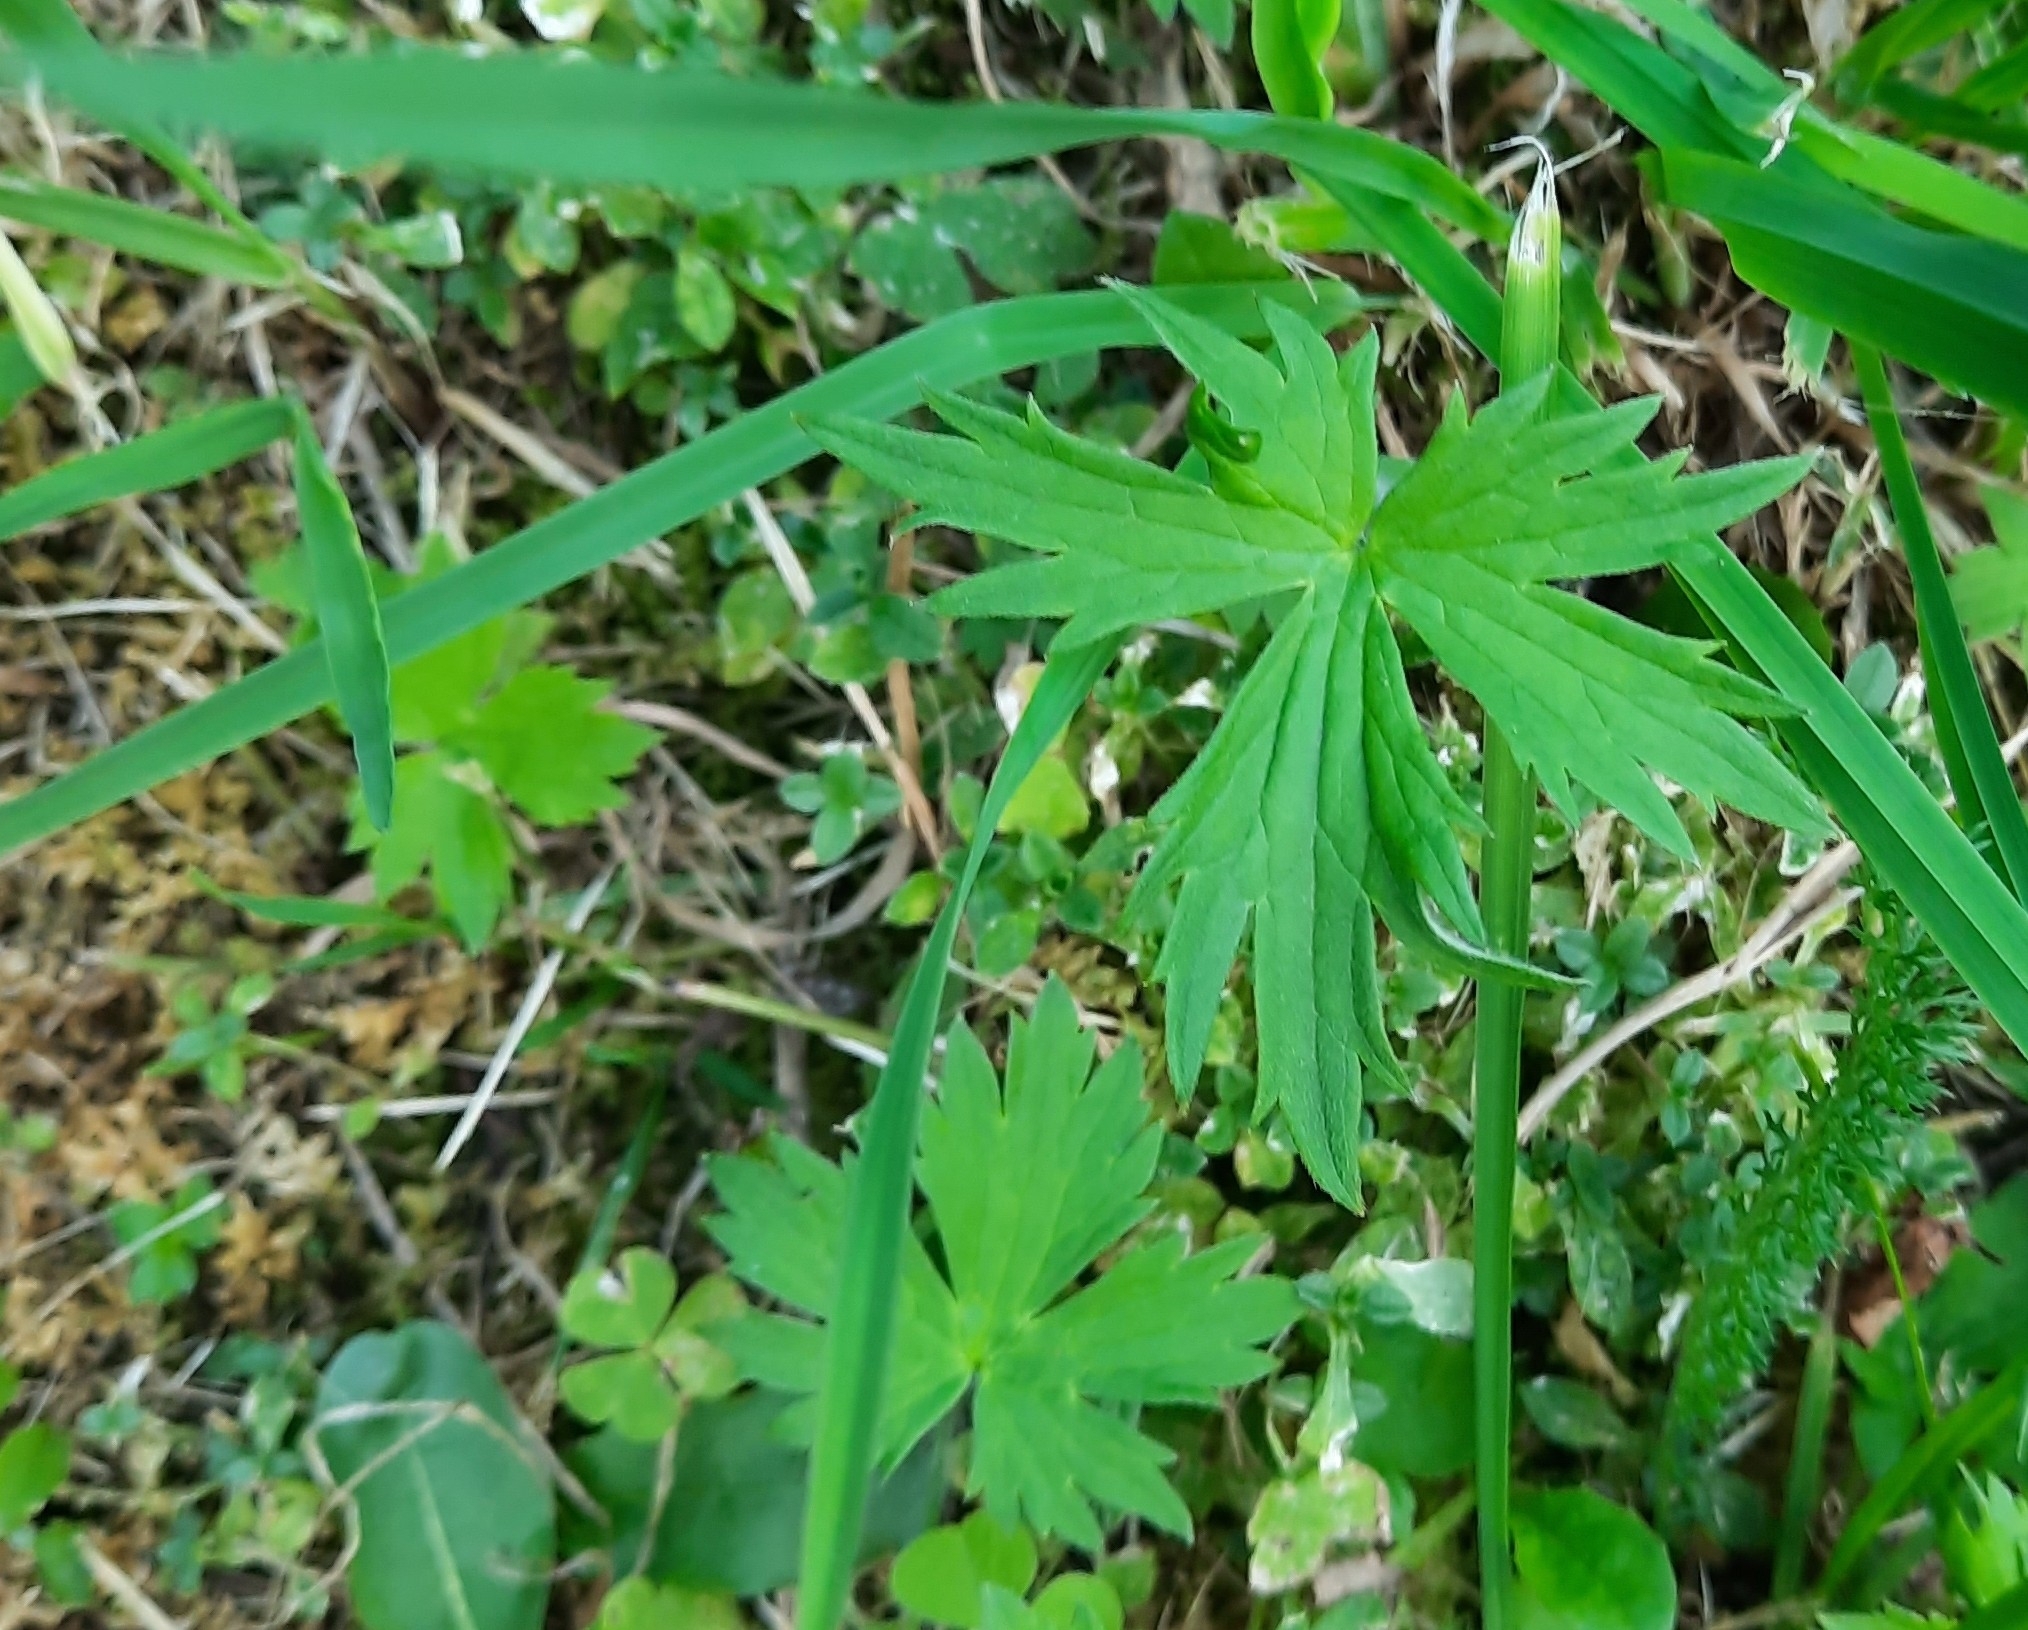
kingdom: Plantae
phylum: Tracheophyta
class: Magnoliopsida
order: Ranunculales
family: Ranunculaceae
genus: Ranunculus
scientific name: Ranunculus propinquus
